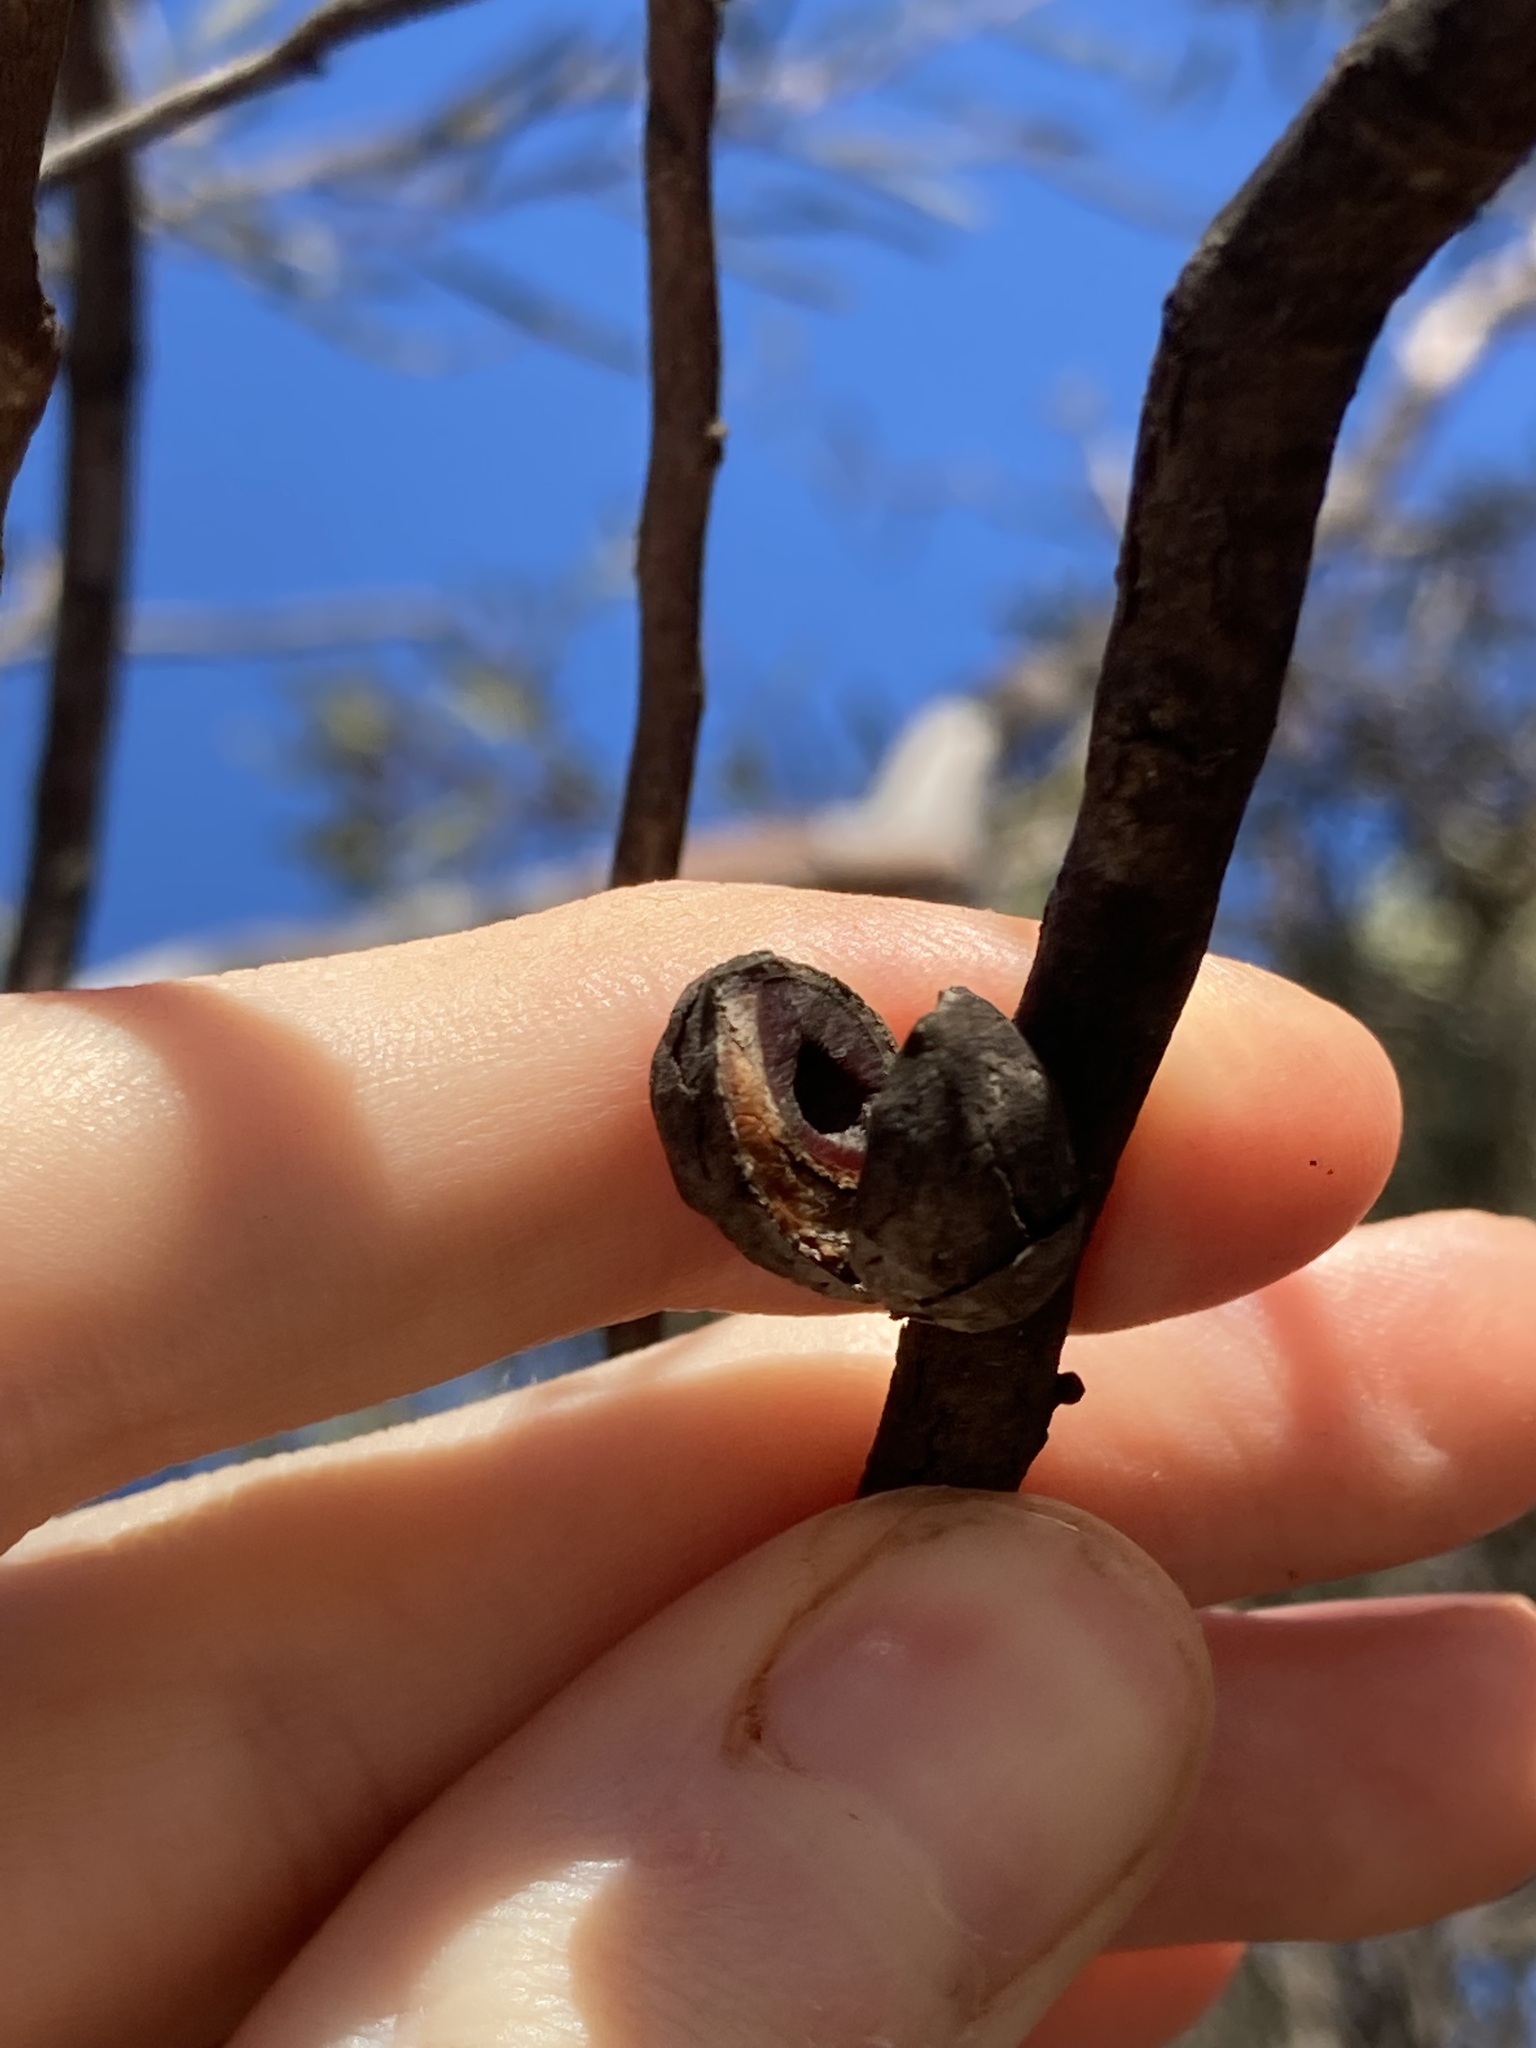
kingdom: Plantae
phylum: Tracheophyta
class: Magnoliopsida
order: Proteales
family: Proteaceae
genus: Hakea
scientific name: Hakea erecta
